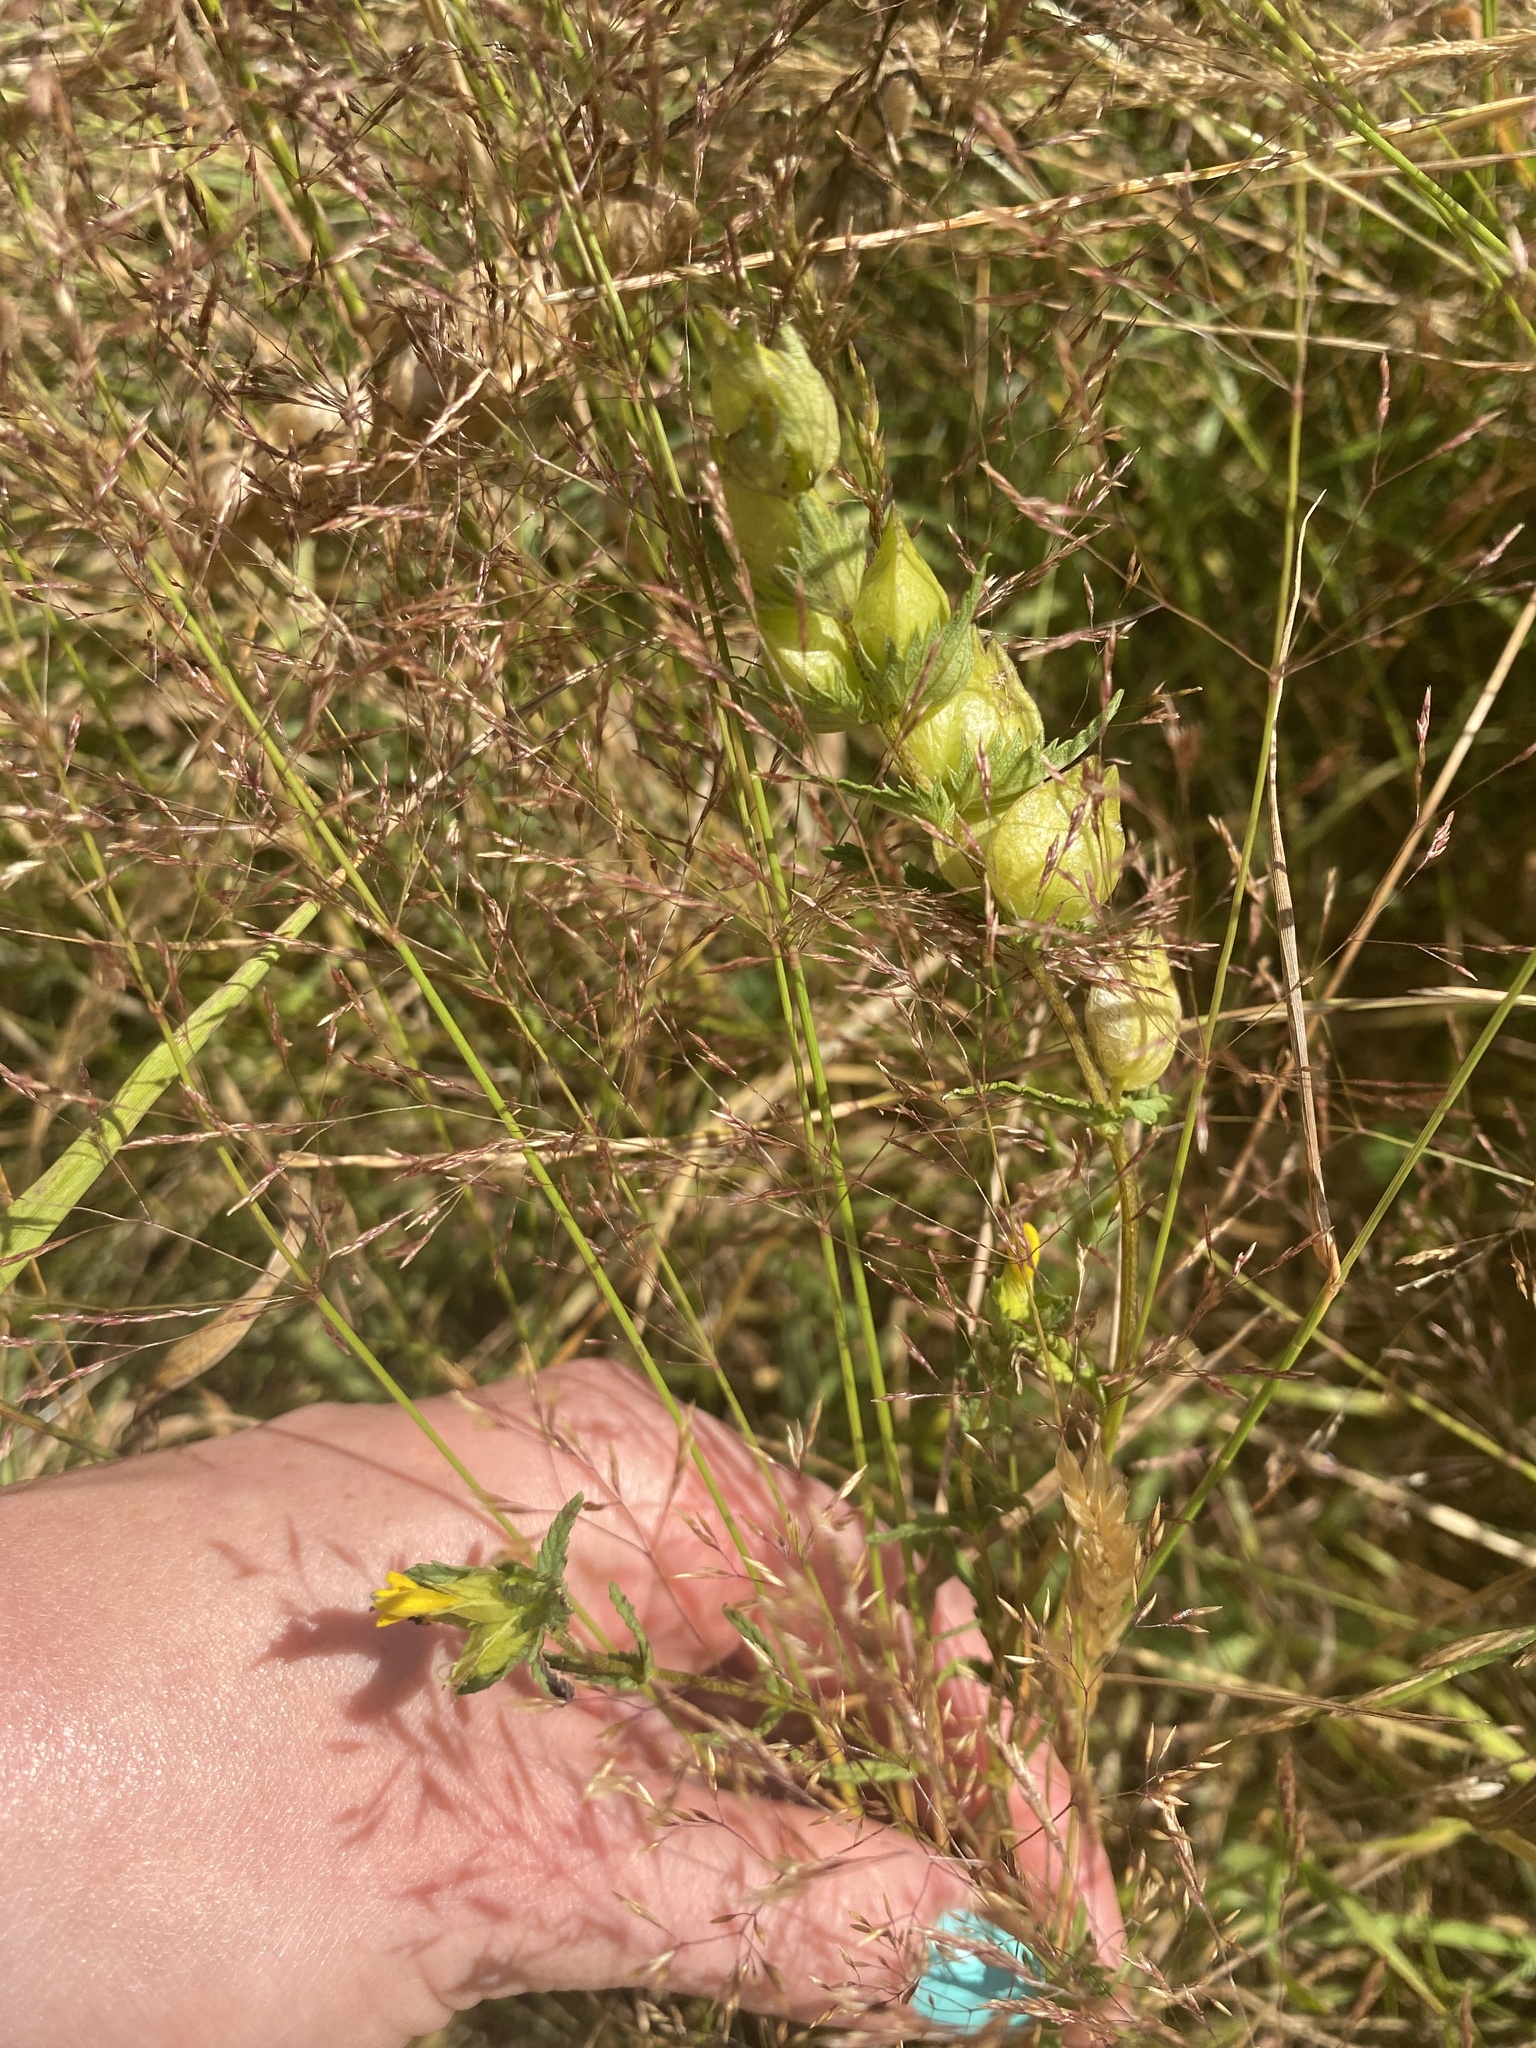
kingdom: Plantae
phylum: Tracheophyta
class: Magnoliopsida
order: Lamiales
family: Orobanchaceae
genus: Rhinanthus
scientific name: Rhinanthus minor
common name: Yellow-rattle
